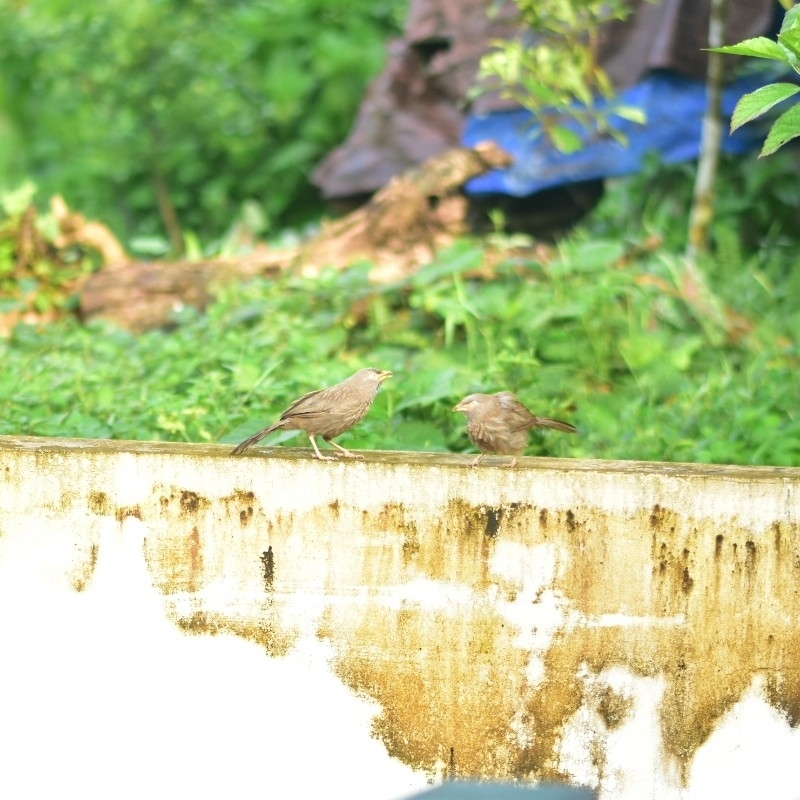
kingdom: Animalia
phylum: Chordata
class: Aves
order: Passeriformes
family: Leiothrichidae
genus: Turdoides
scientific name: Turdoides striata
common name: Jungle babbler
